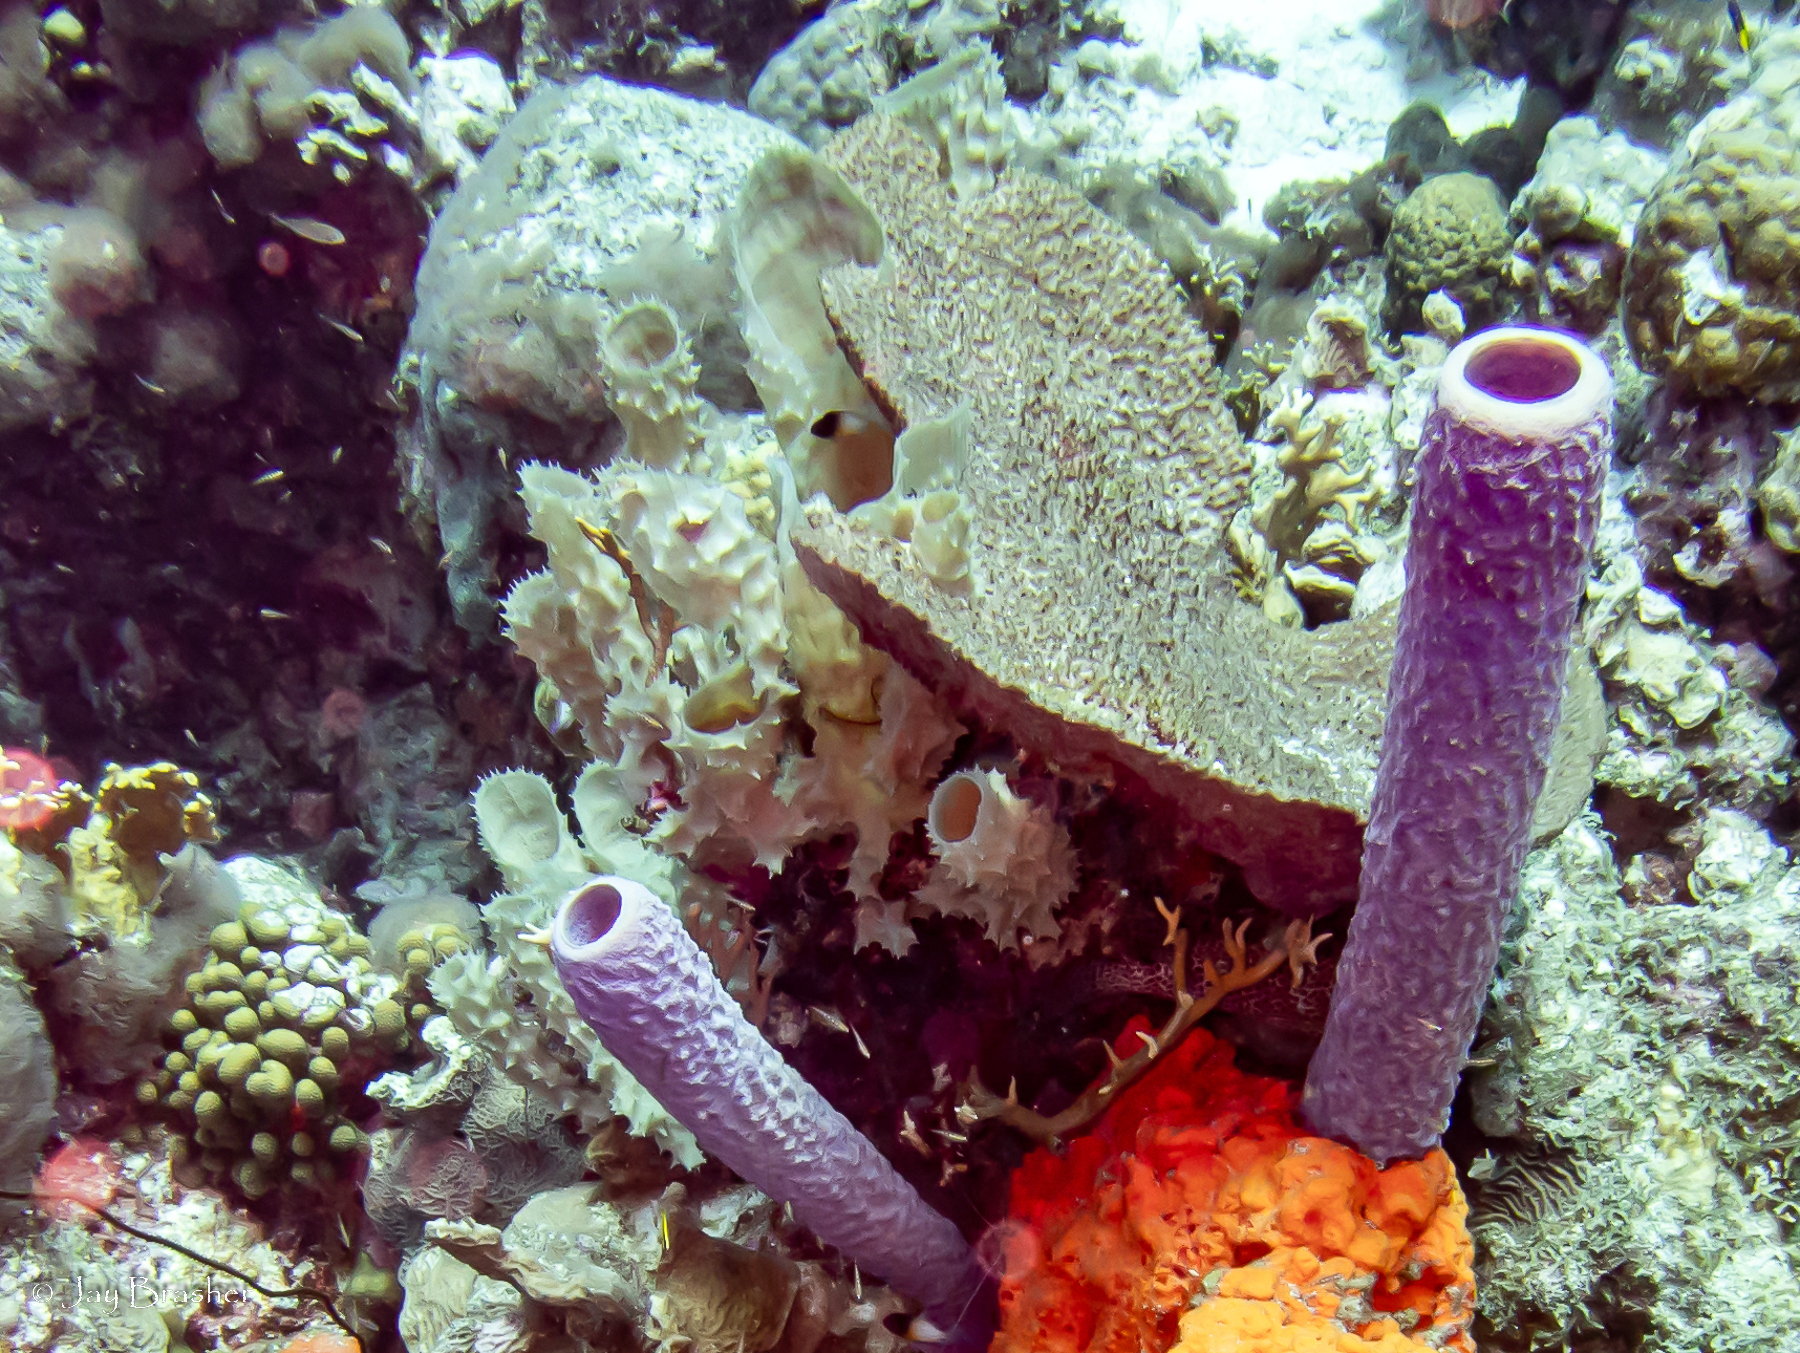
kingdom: Animalia
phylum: Porifera
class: Demospongiae
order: Dictyoceratida
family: Irciniidae
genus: Ircinia
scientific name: Ircinia campana
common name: Vase sponge
